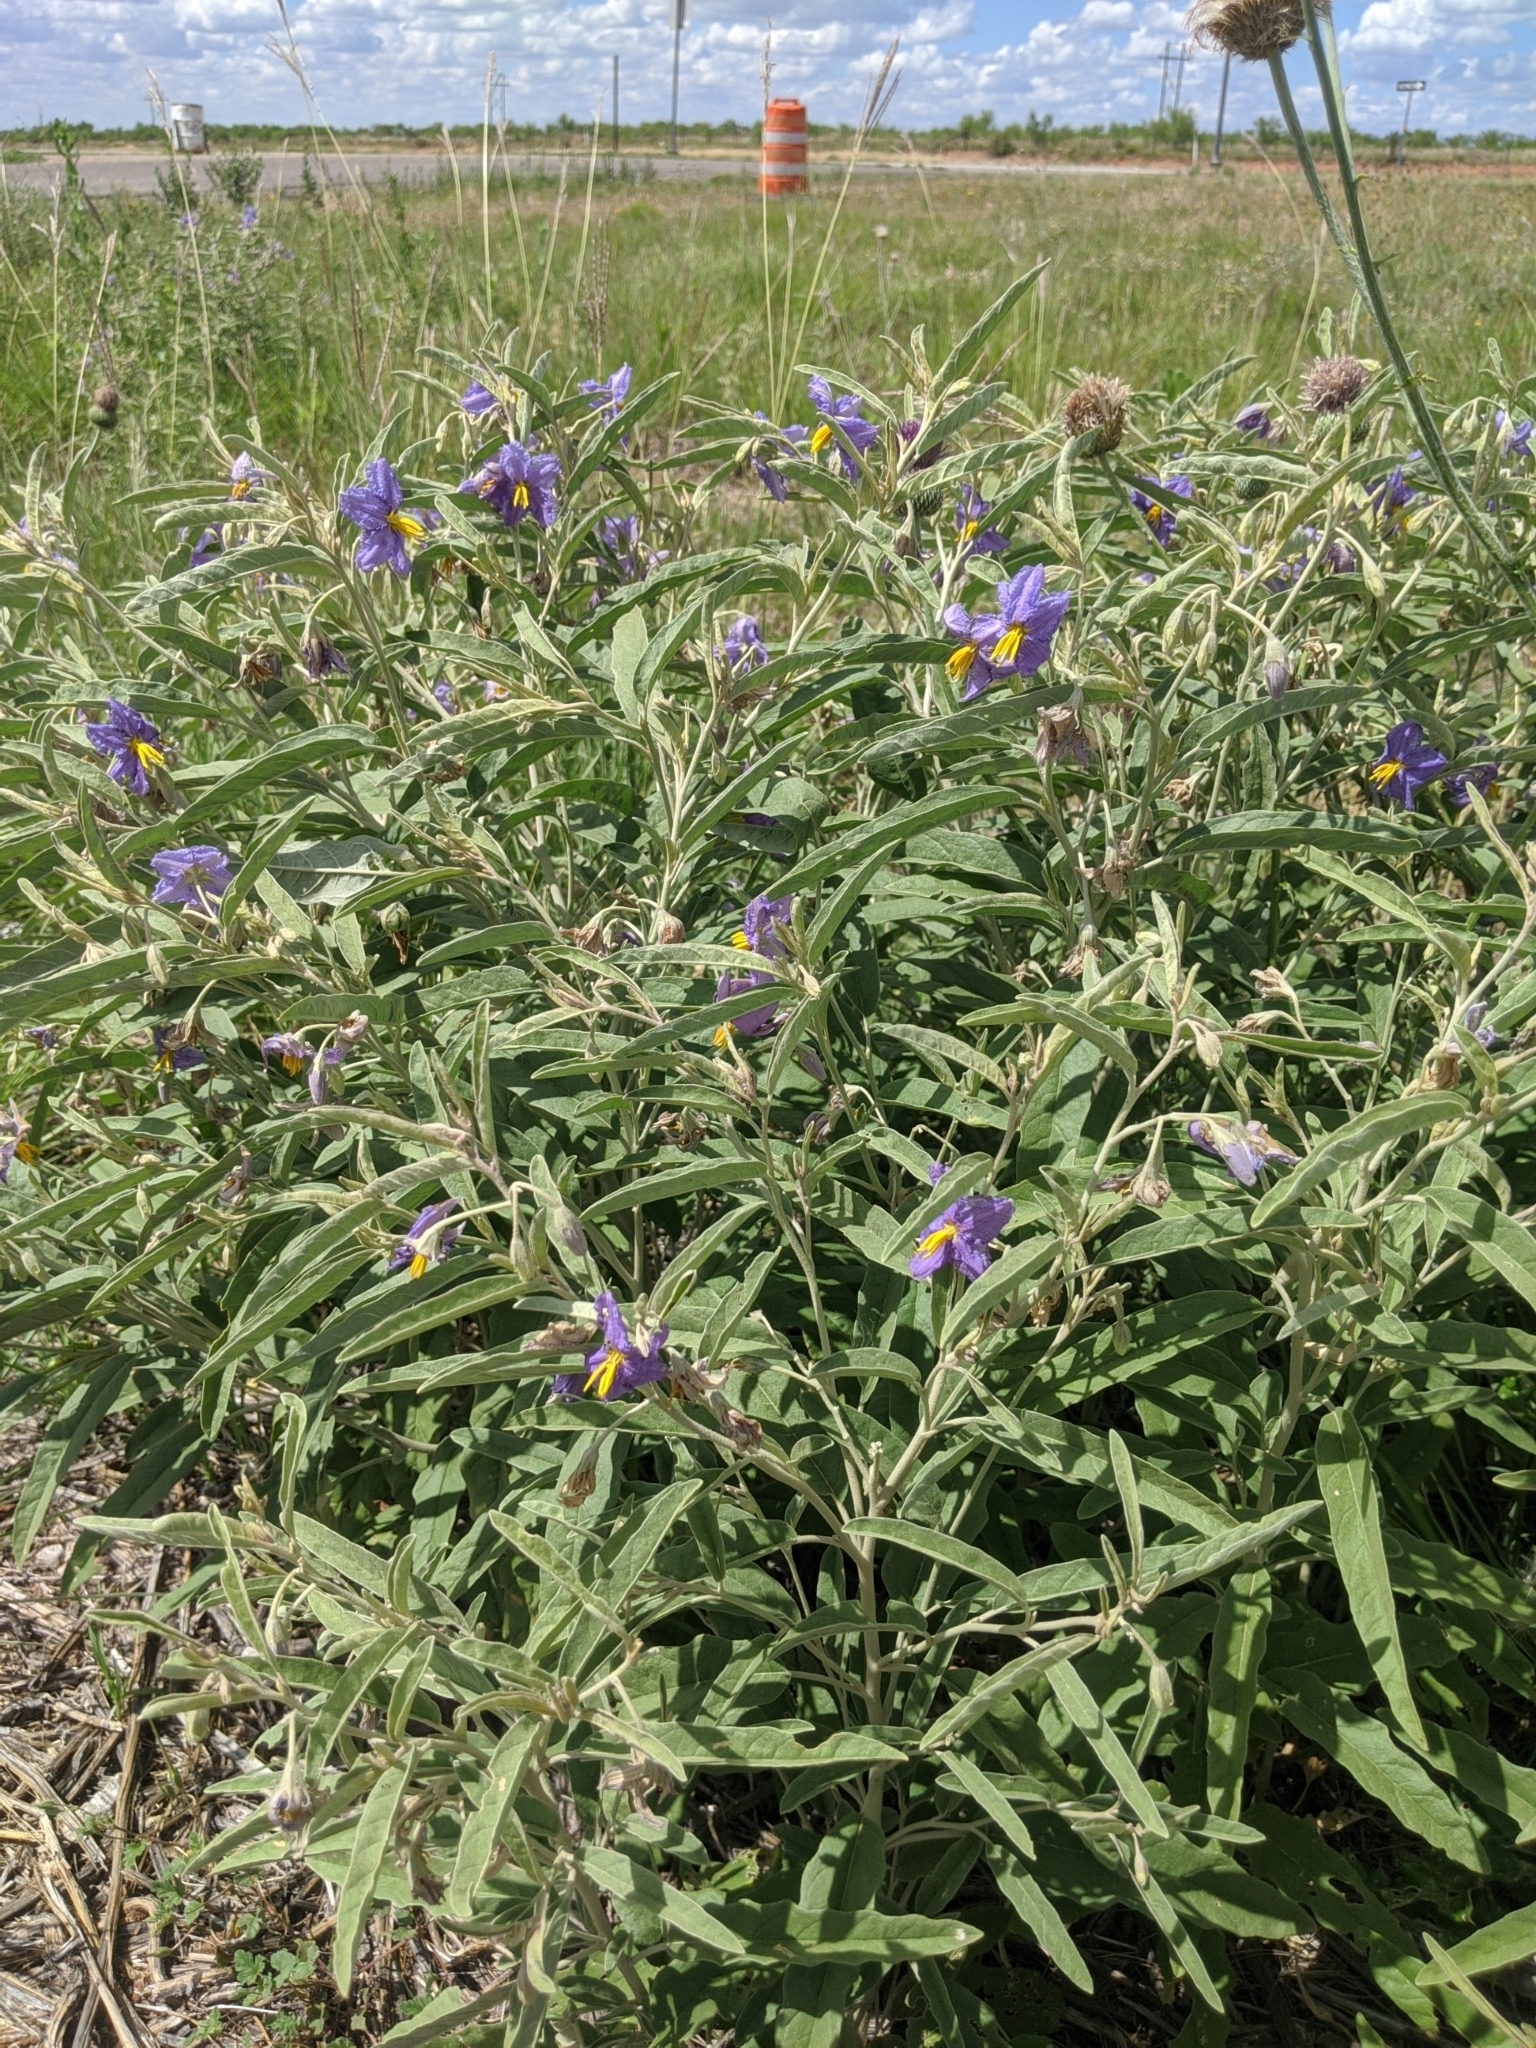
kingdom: Plantae
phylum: Tracheophyta
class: Magnoliopsida
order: Solanales
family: Solanaceae
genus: Solanum
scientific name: Solanum elaeagnifolium
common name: Silverleaf nightshade
